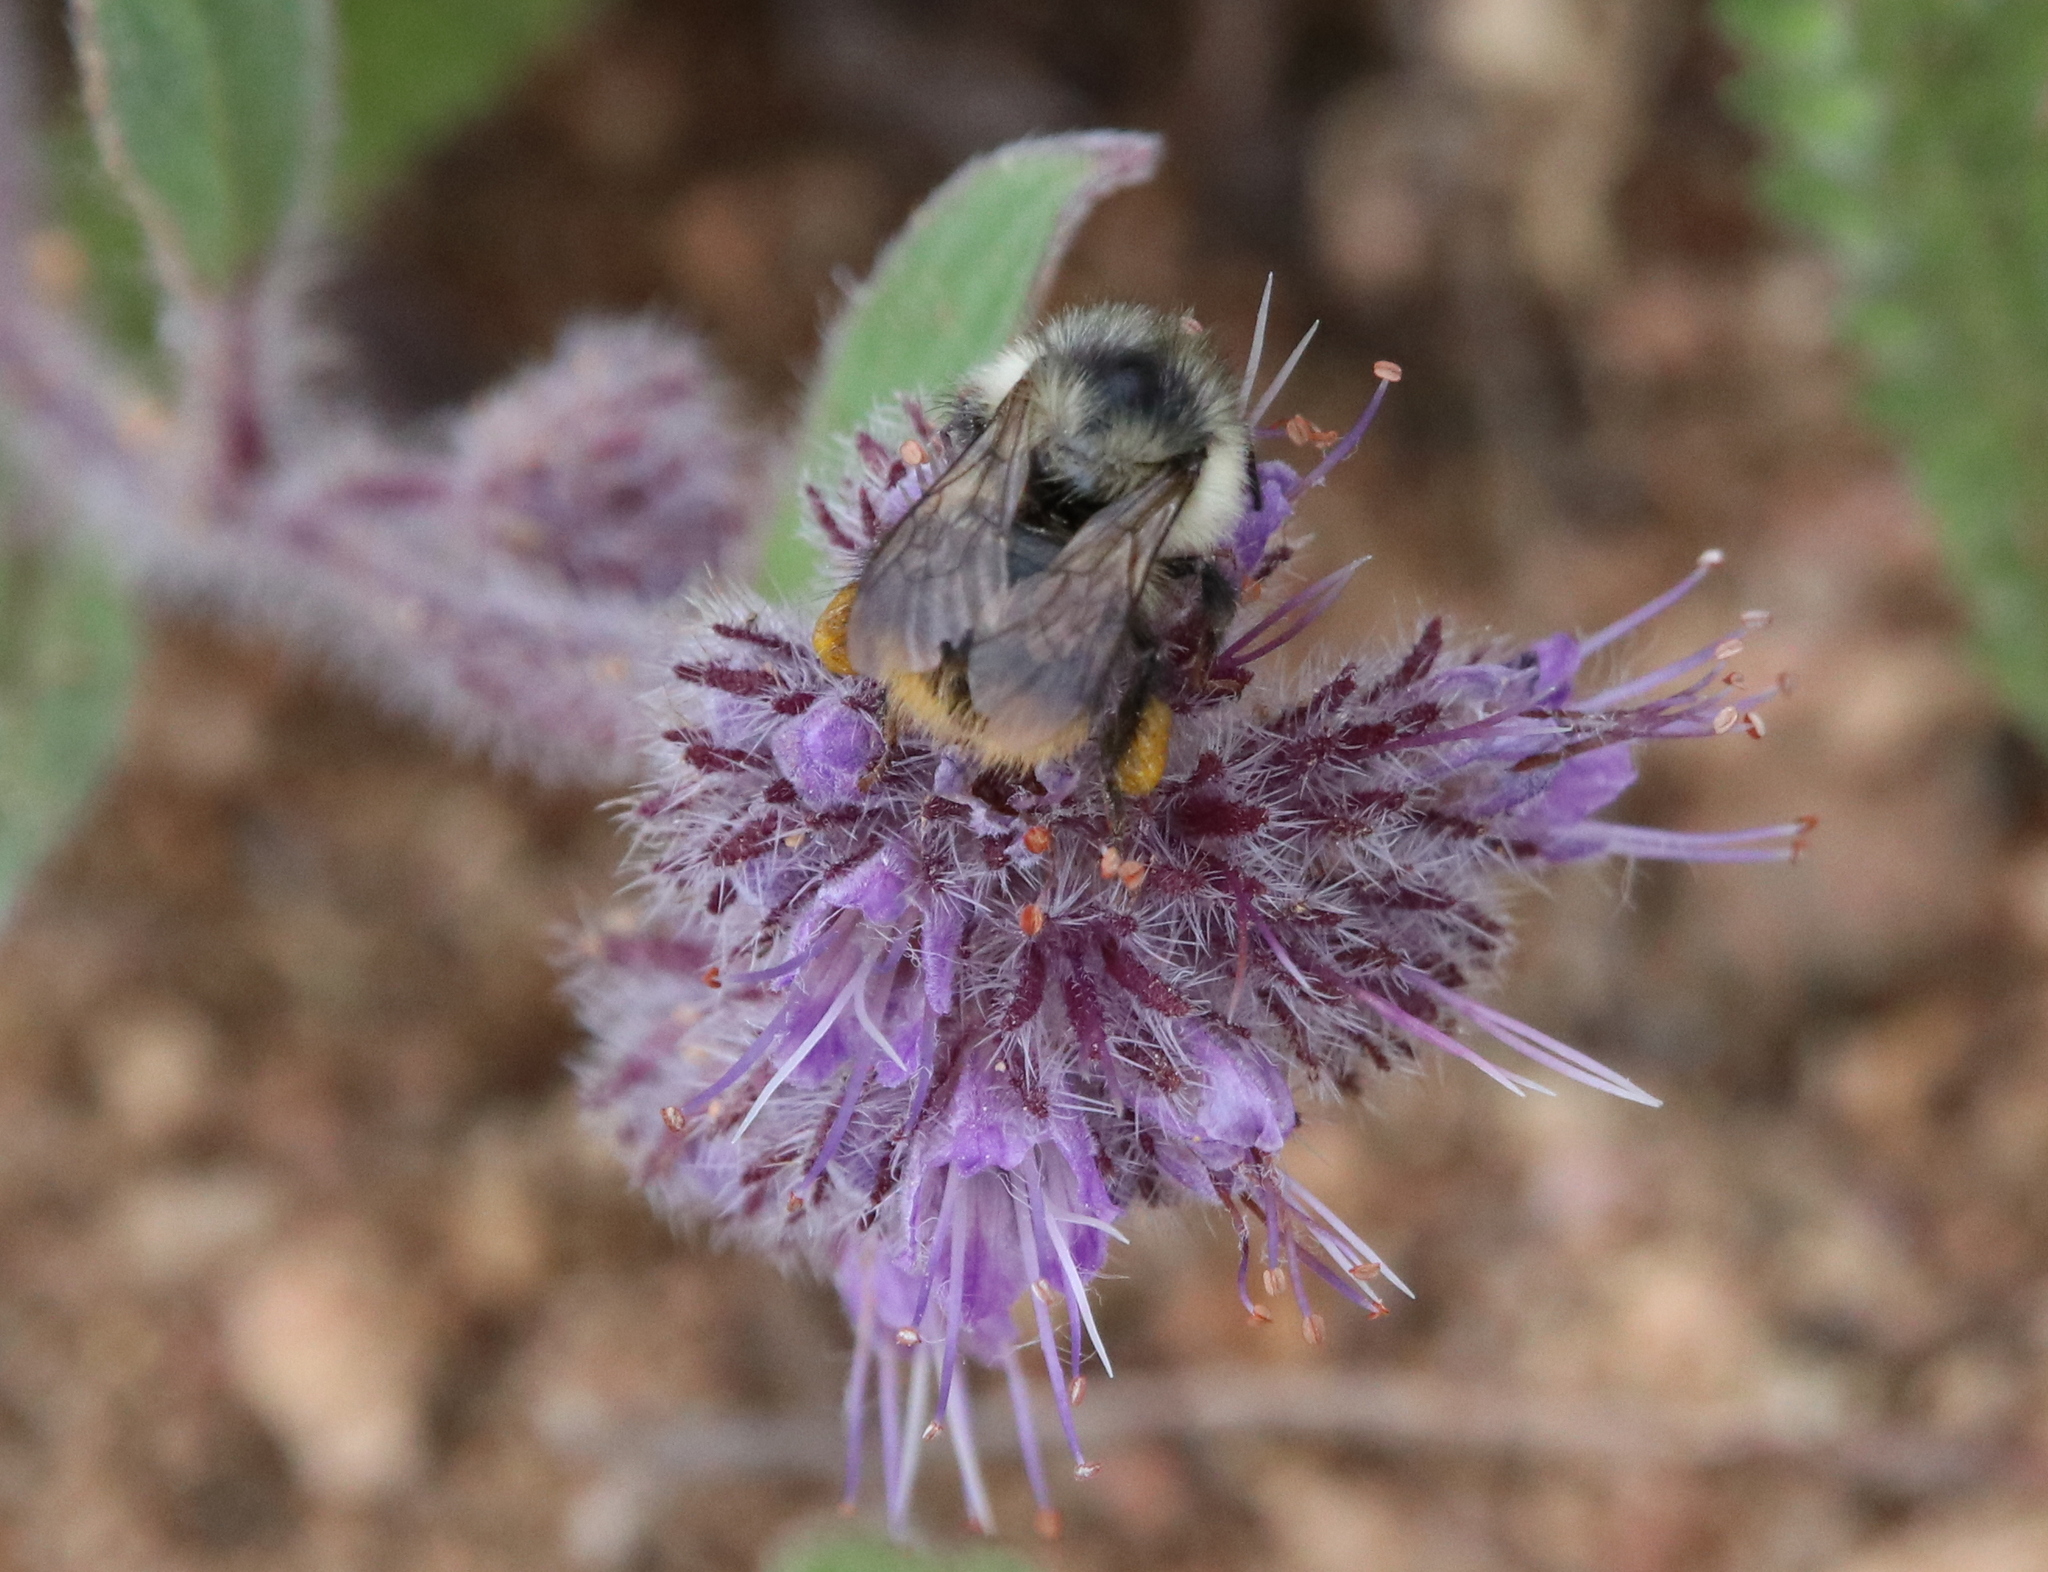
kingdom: Animalia
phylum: Arthropoda
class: Insecta
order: Hymenoptera
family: Apidae
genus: Bombus
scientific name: Bombus mixtus
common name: Fuzzy-horned bumble bee
